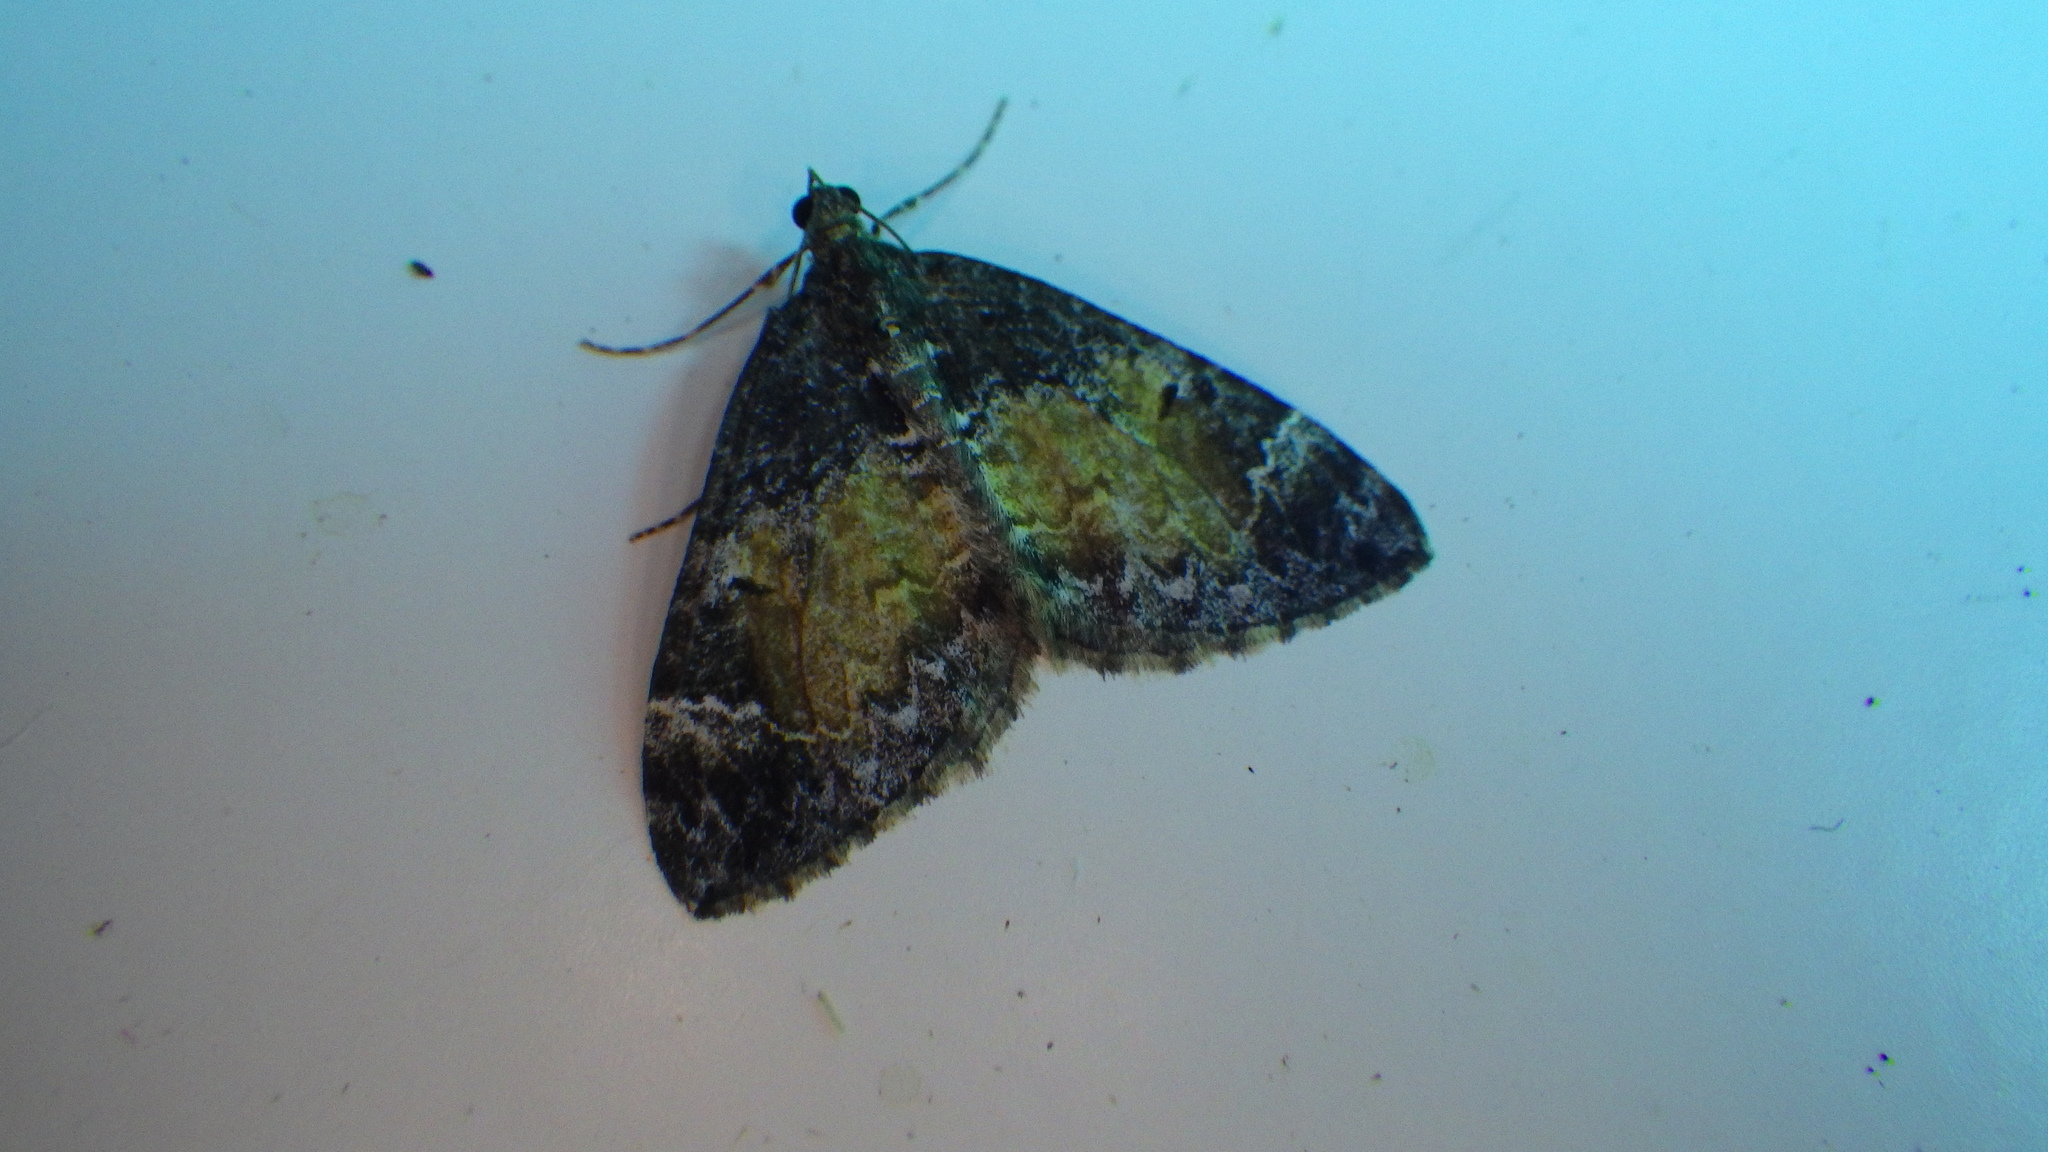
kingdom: Animalia
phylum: Arthropoda
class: Insecta
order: Lepidoptera
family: Geometridae
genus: Dysstroma
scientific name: Dysstroma truncata
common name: Common marbled carpet
